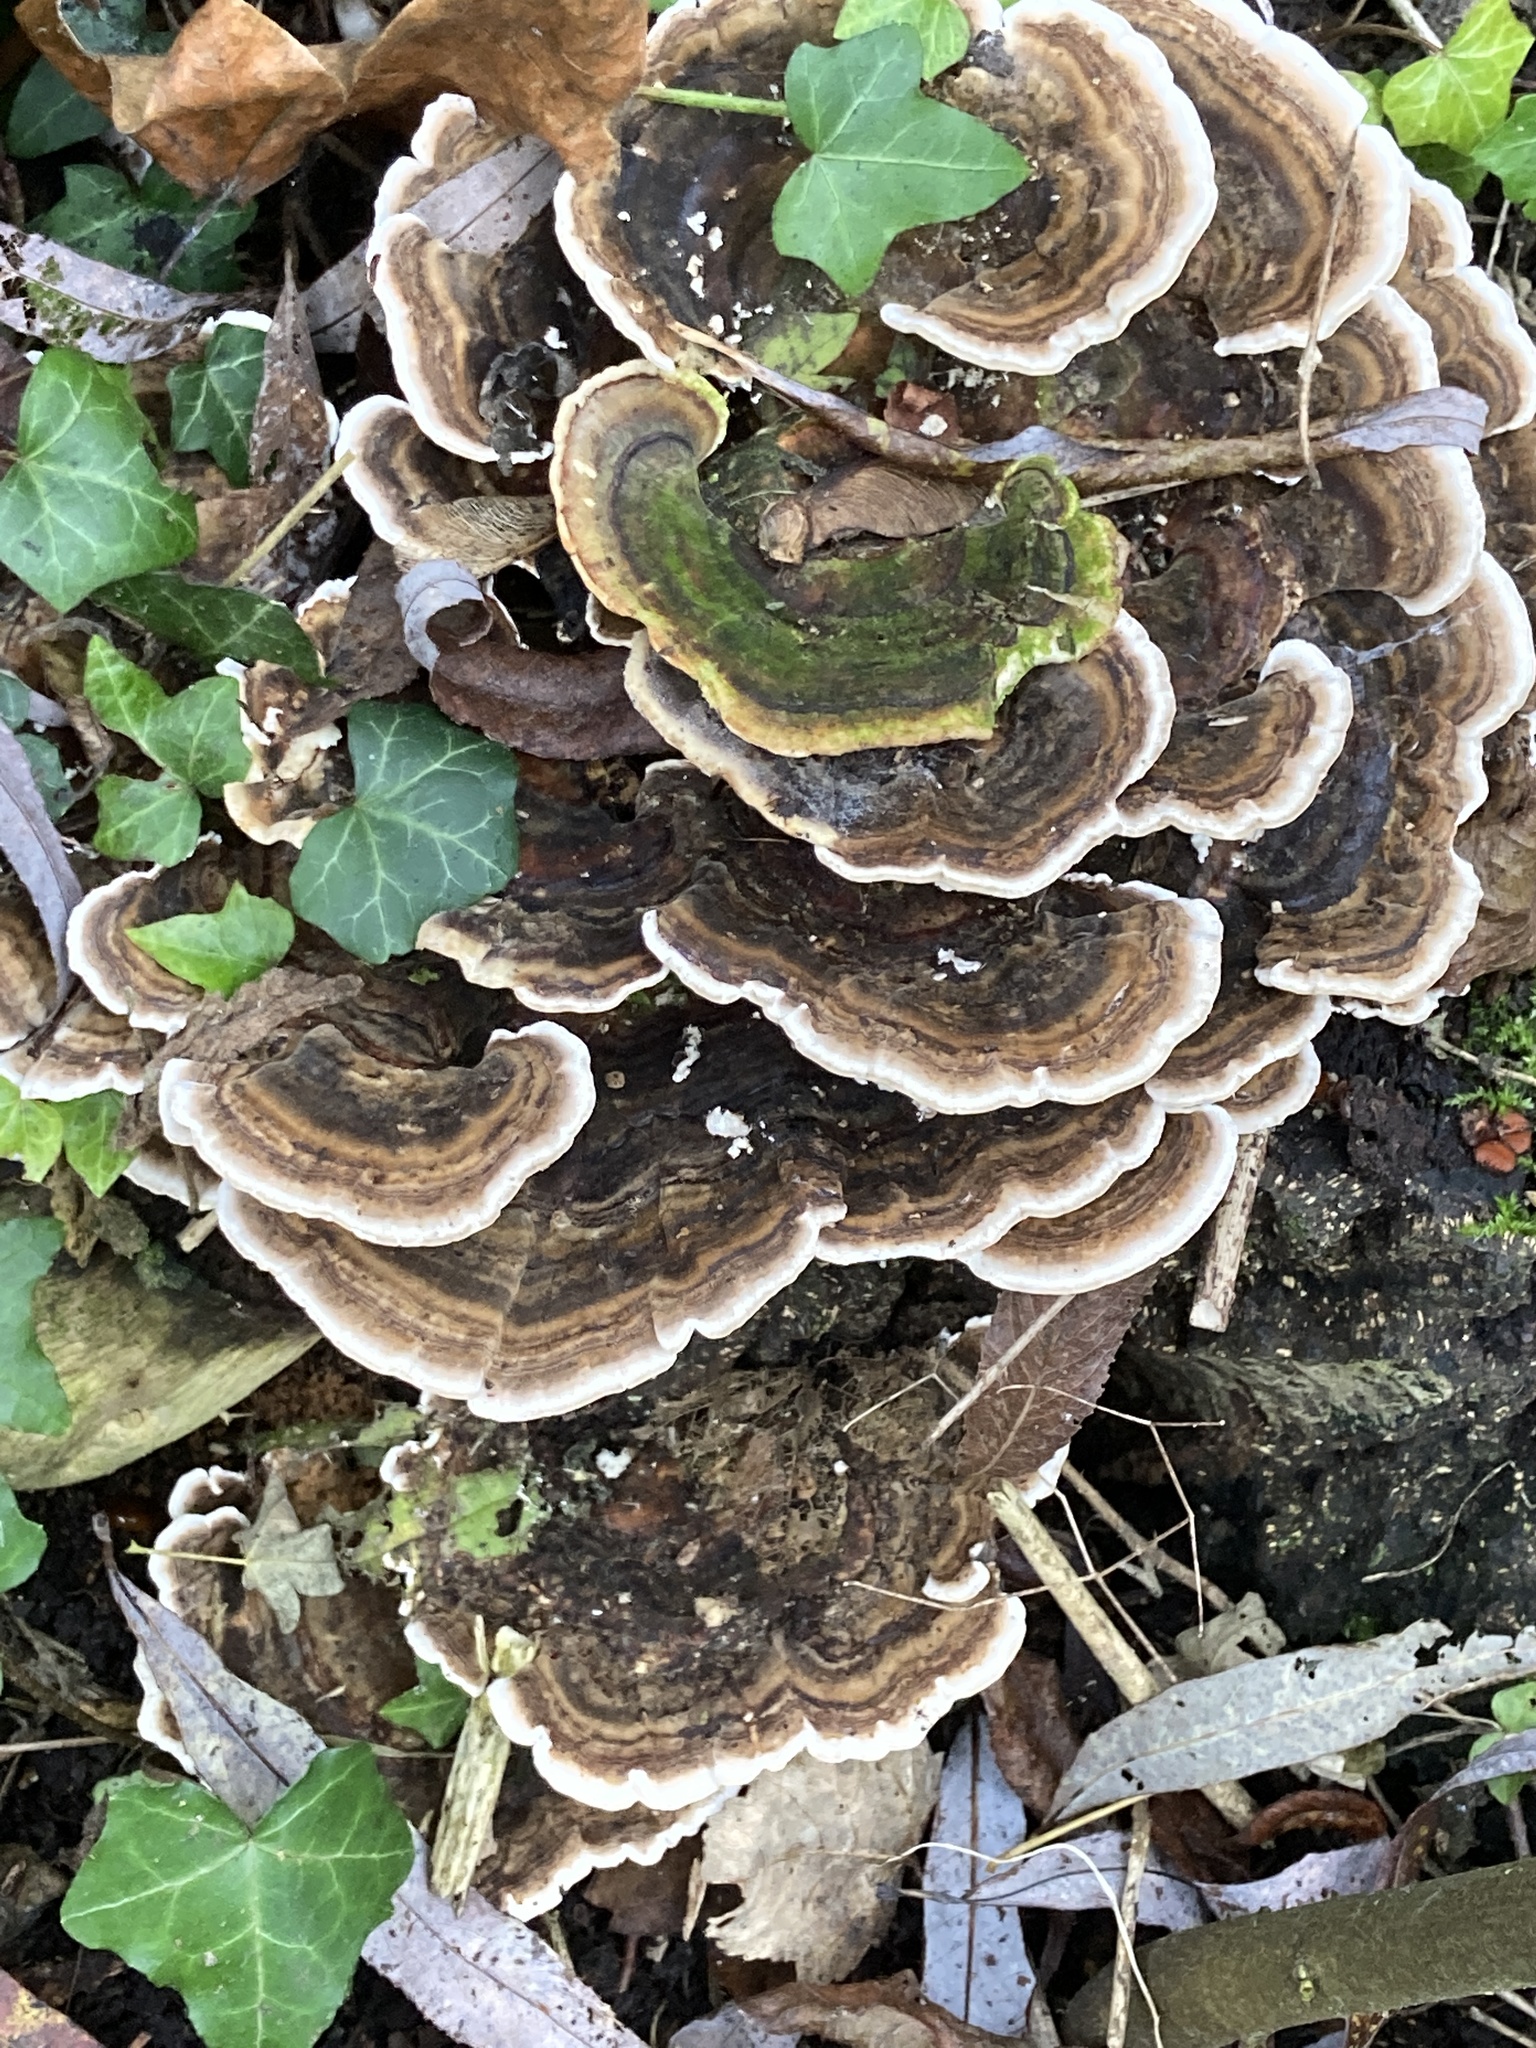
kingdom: Fungi
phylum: Basidiomycota
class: Agaricomycetes
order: Polyporales
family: Polyporaceae
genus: Trametes
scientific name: Trametes versicolor
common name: Turkeytail
